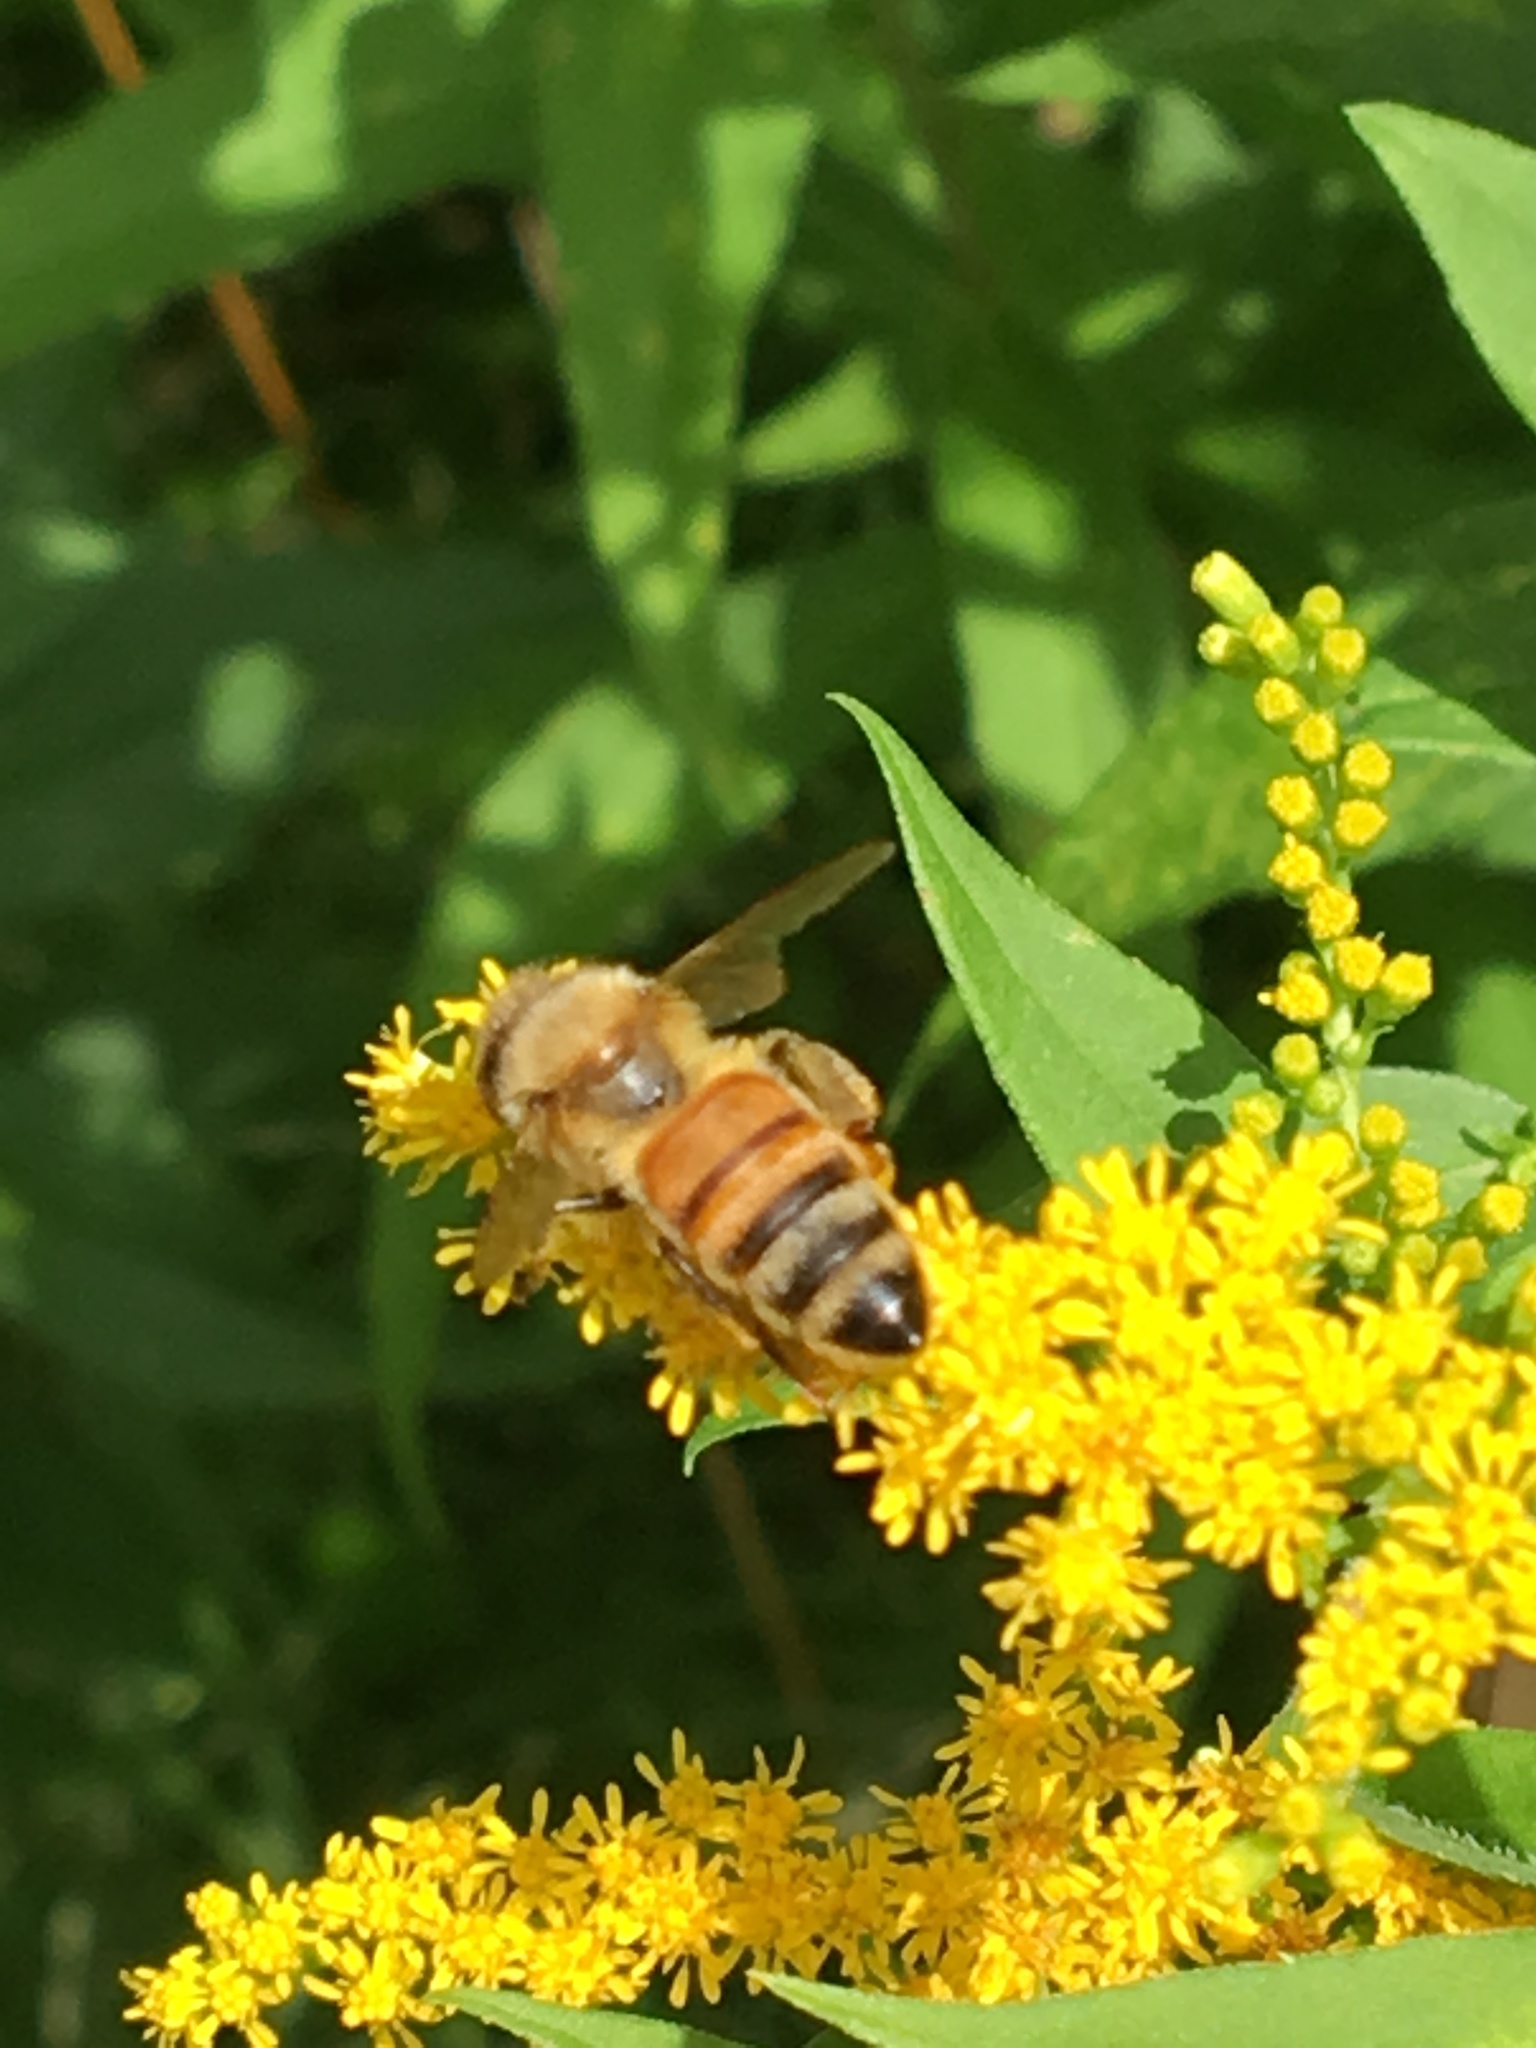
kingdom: Animalia
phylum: Arthropoda
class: Insecta
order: Hymenoptera
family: Apidae
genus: Apis
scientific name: Apis mellifera
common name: Honey bee
